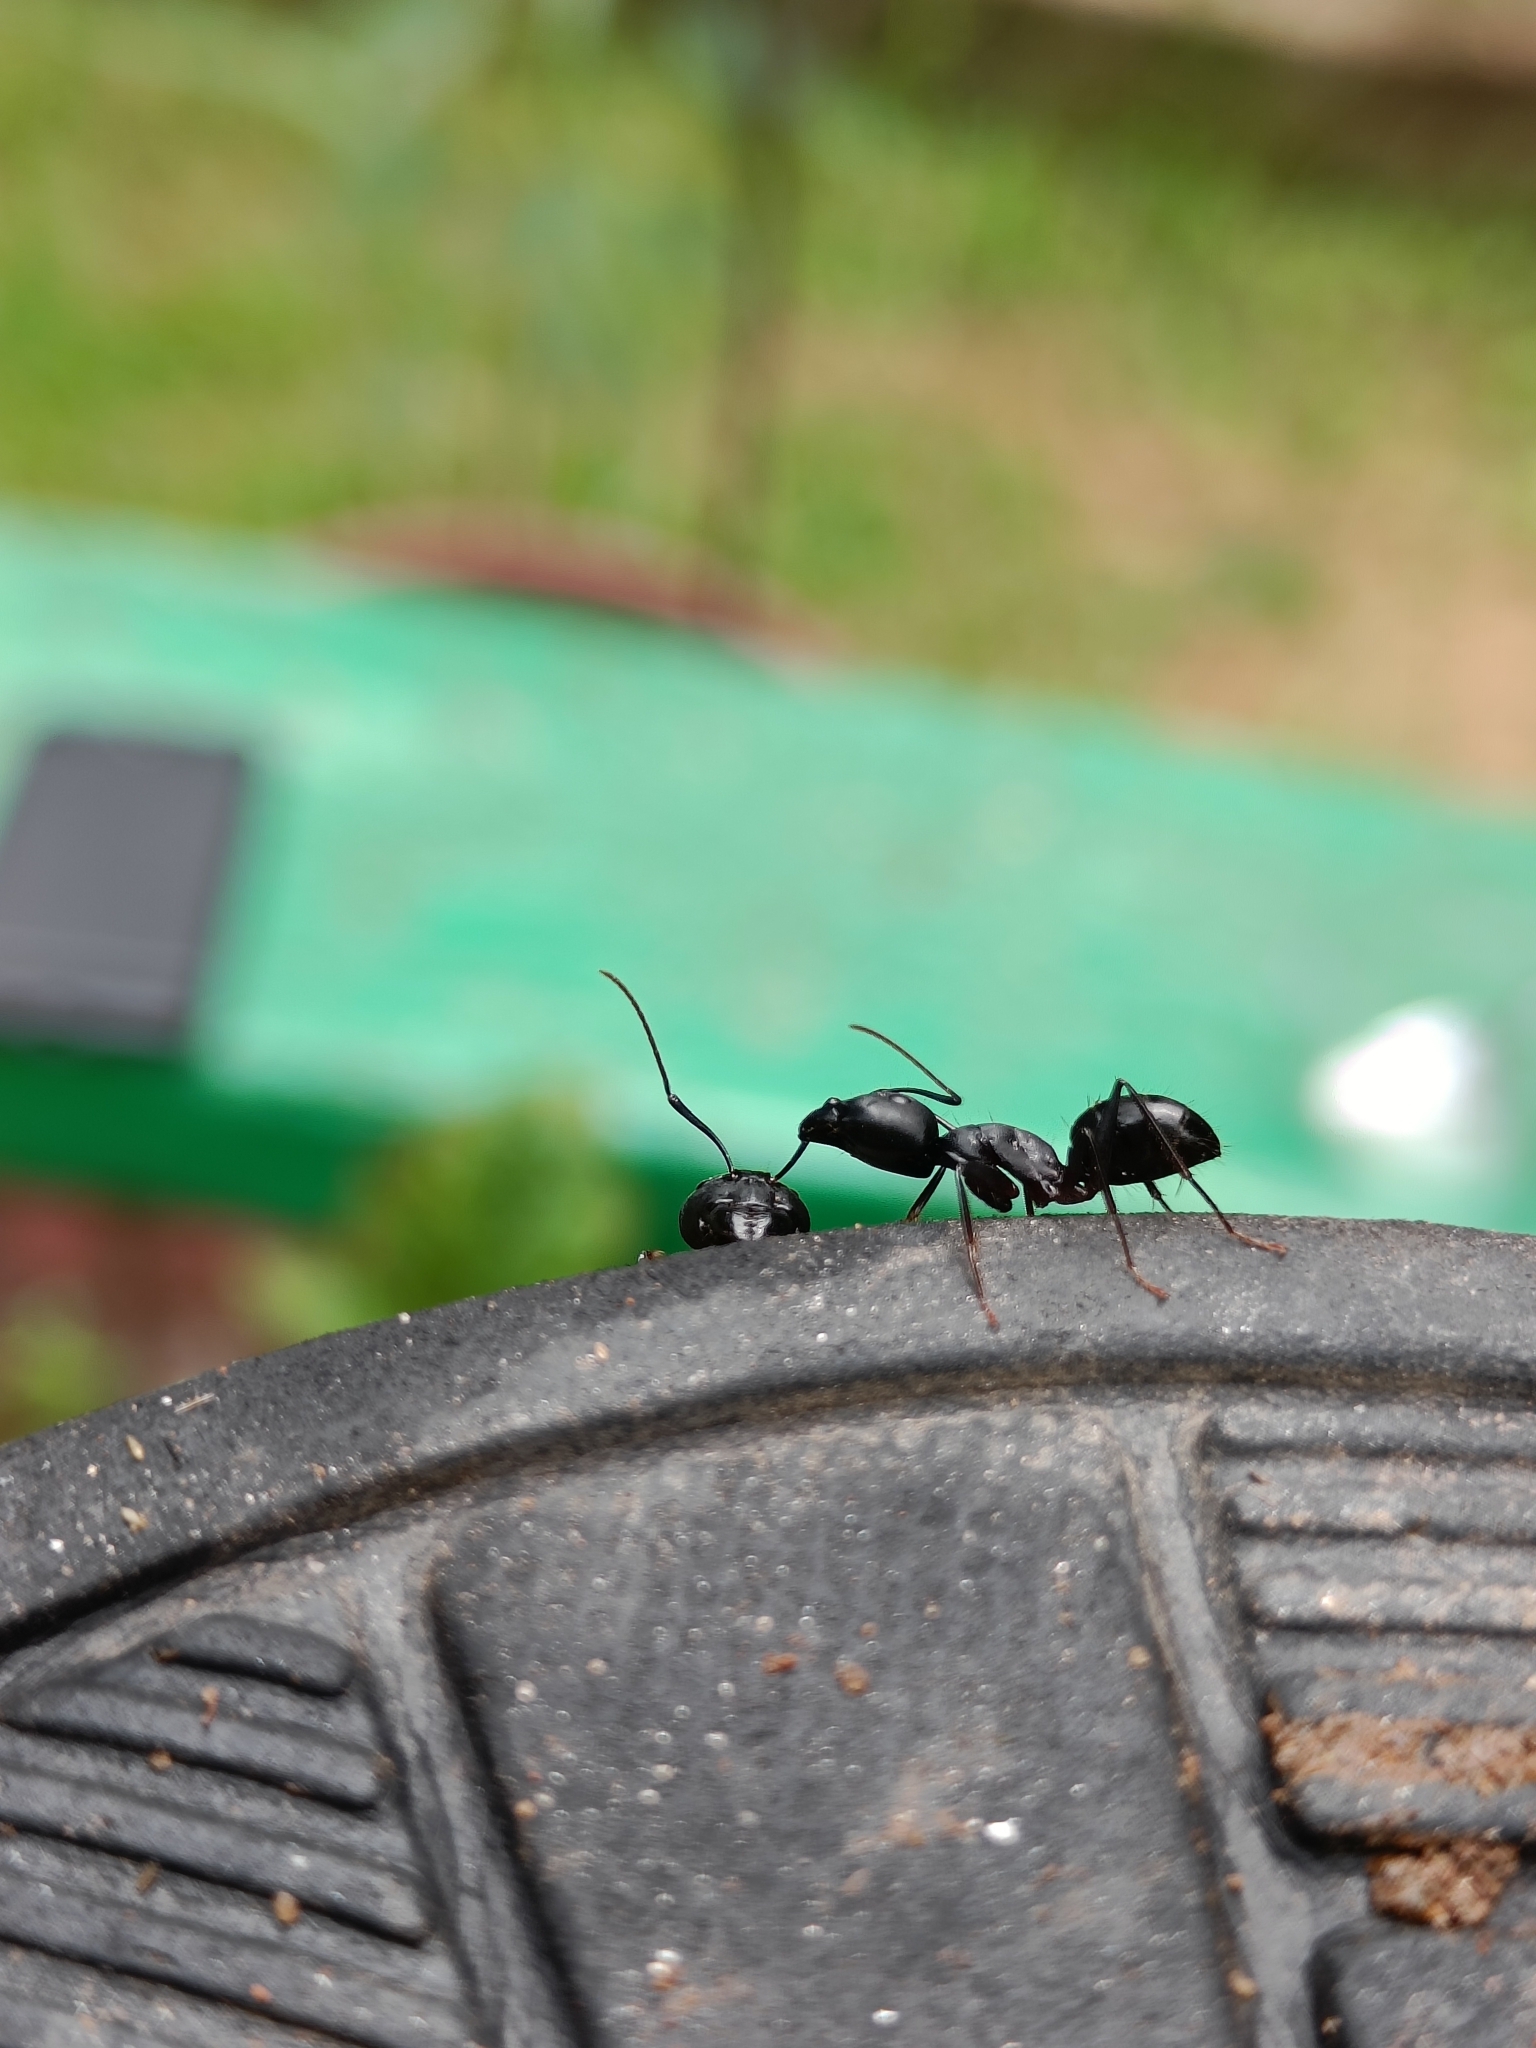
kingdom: Animalia
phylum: Arthropoda
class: Insecta
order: Hymenoptera
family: Formicidae
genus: Camponotus
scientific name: Camponotus compressus
